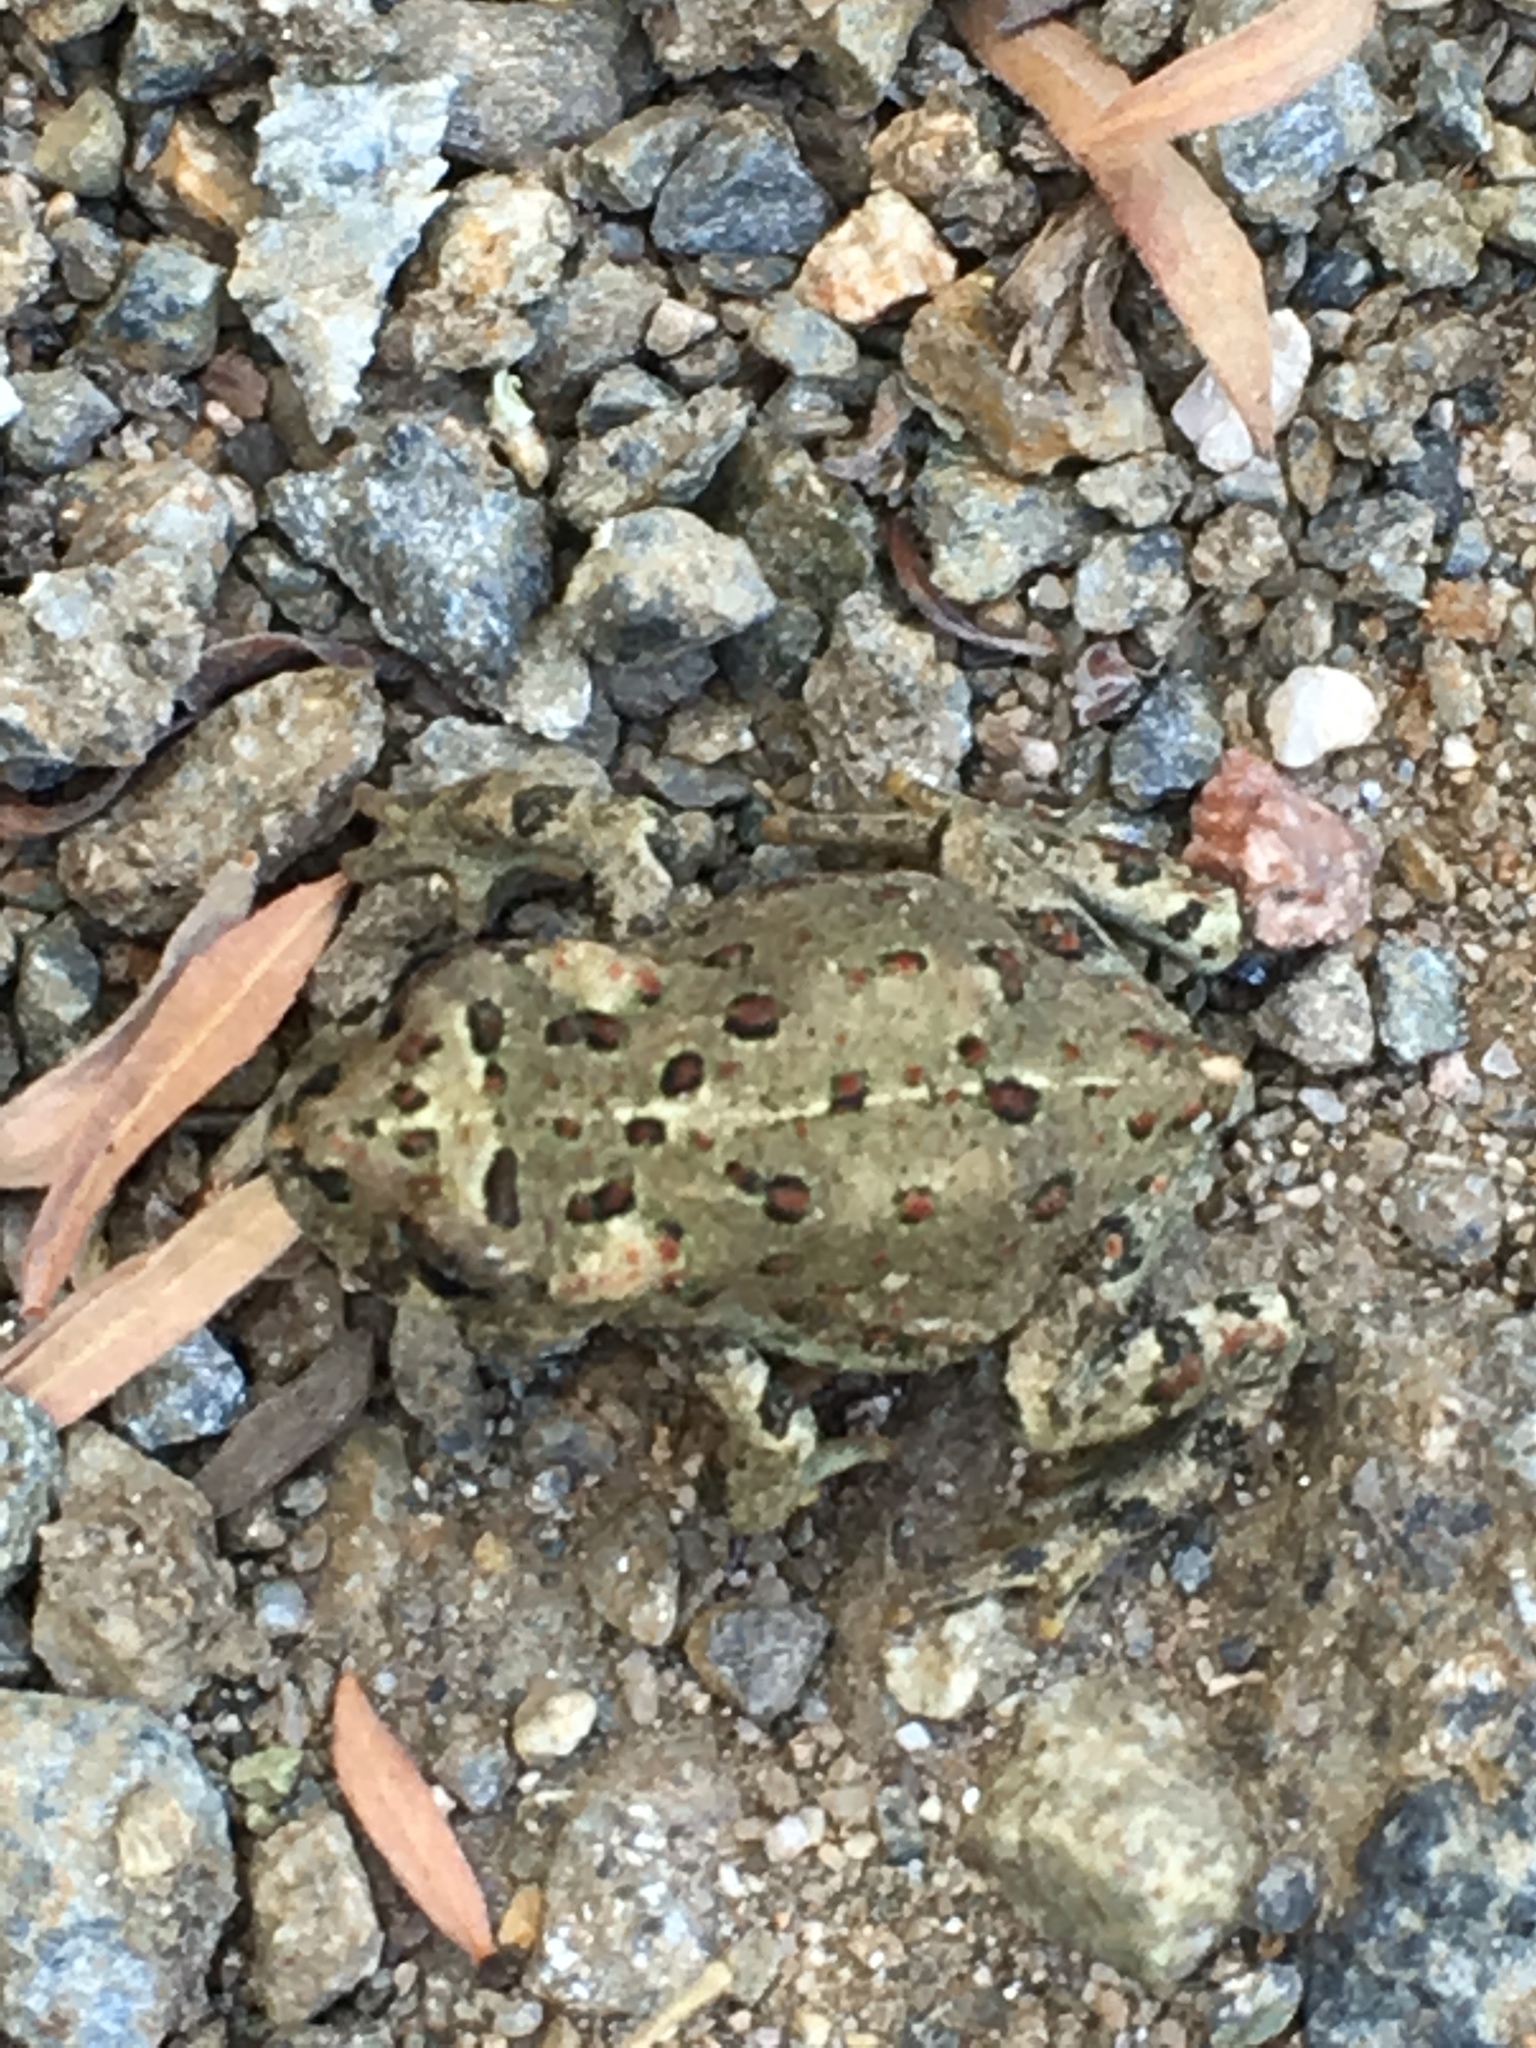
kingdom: Animalia
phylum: Chordata
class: Amphibia
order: Anura
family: Bufonidae
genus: Anaxyrus
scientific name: Anaxyrus boreas
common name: Western toad
